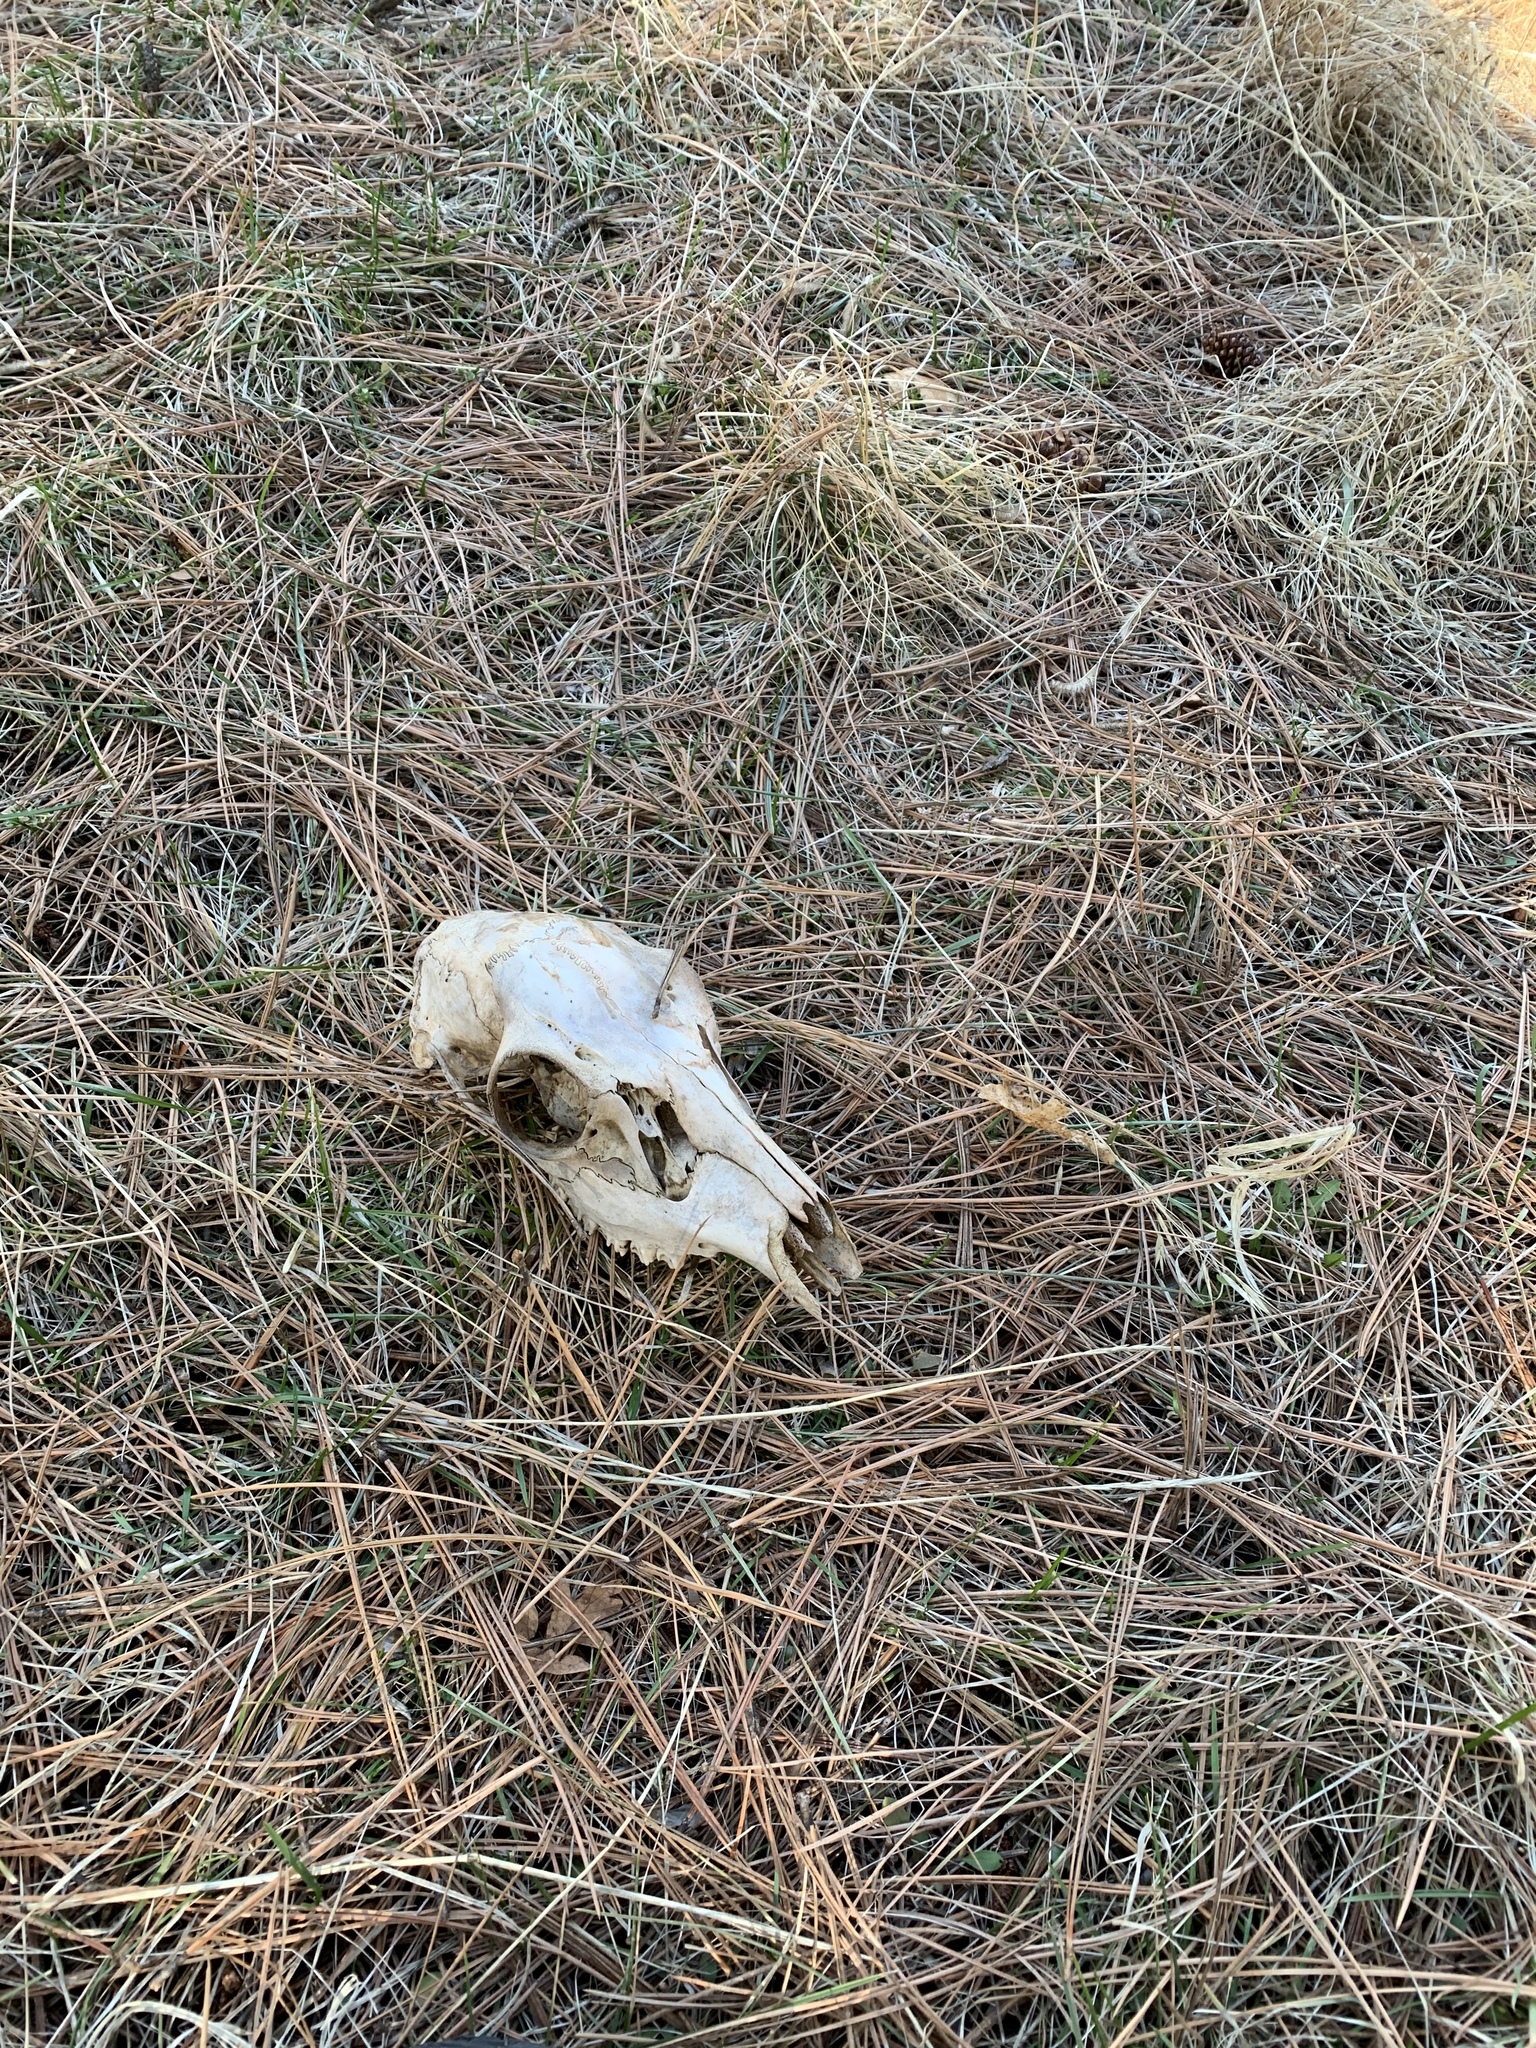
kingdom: Animalia
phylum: Chordata
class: Mammalia
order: Artiodactyla
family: Cervidae
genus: Odocoileus
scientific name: Odocoileus hemionus
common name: Mule deer
